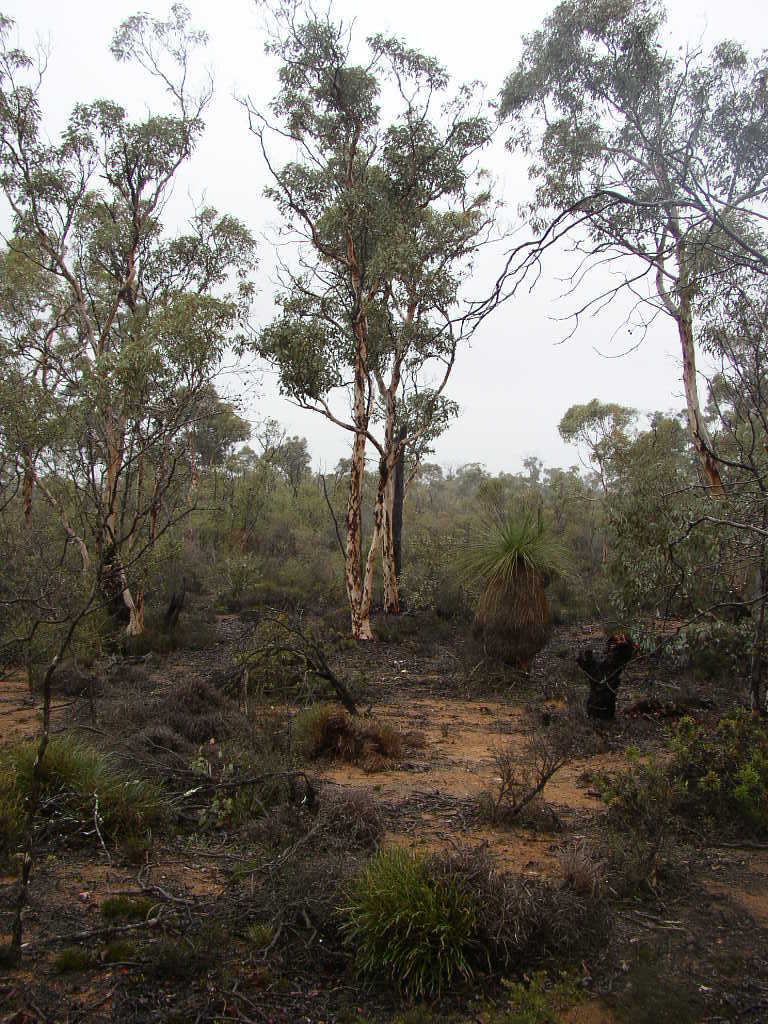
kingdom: Plantae
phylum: Tracheophyta
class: Magnoliopsida
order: Myrtales
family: Myrtaceae
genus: Eucalyptus
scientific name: Eucalyptus wandoo
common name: White gum
